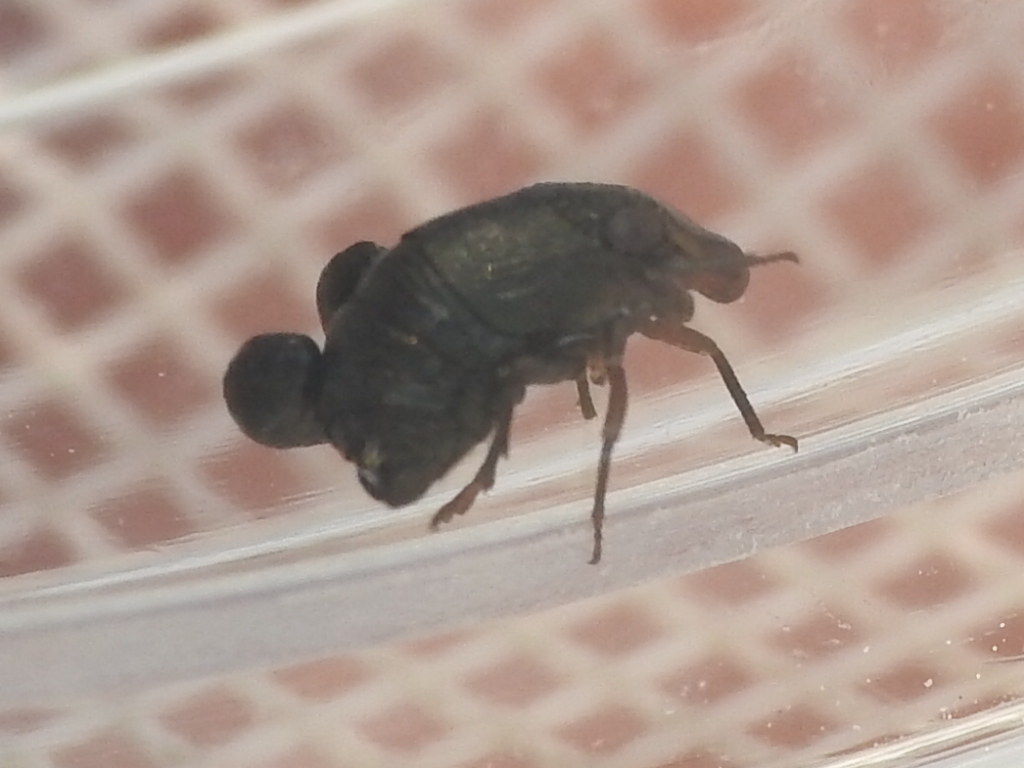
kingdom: Animalia
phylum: Arthropoda
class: Insecta
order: Hemiptera
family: Caliscelidae
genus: Bruchomorpha
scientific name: Bruchomorpha oculata
